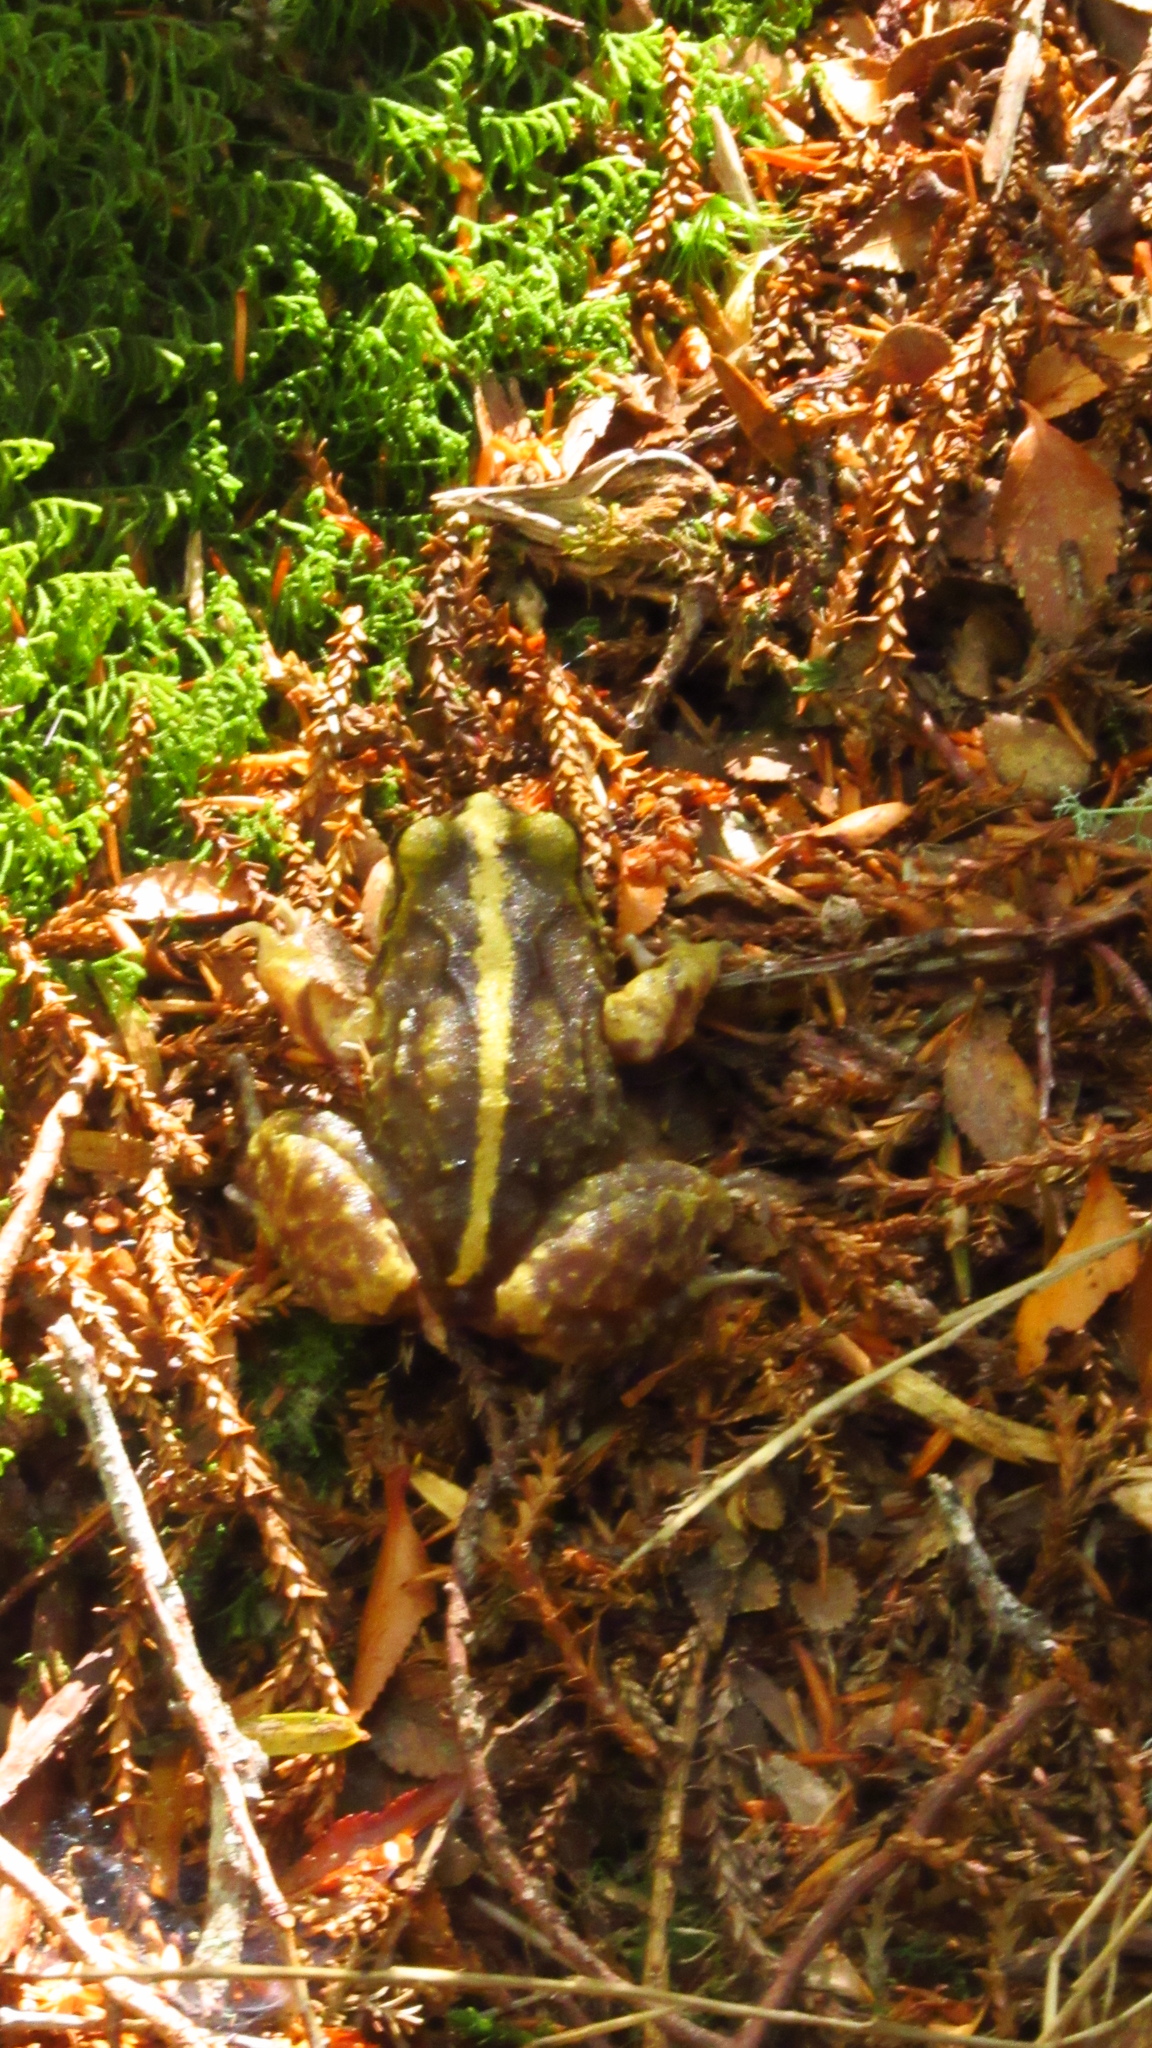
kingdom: Animalia
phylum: Chordata
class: Amphibia
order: Anura
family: Alsodidae
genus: Eupsophus
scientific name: Eupsophus emiliopugini
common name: Emilio's ground frog
